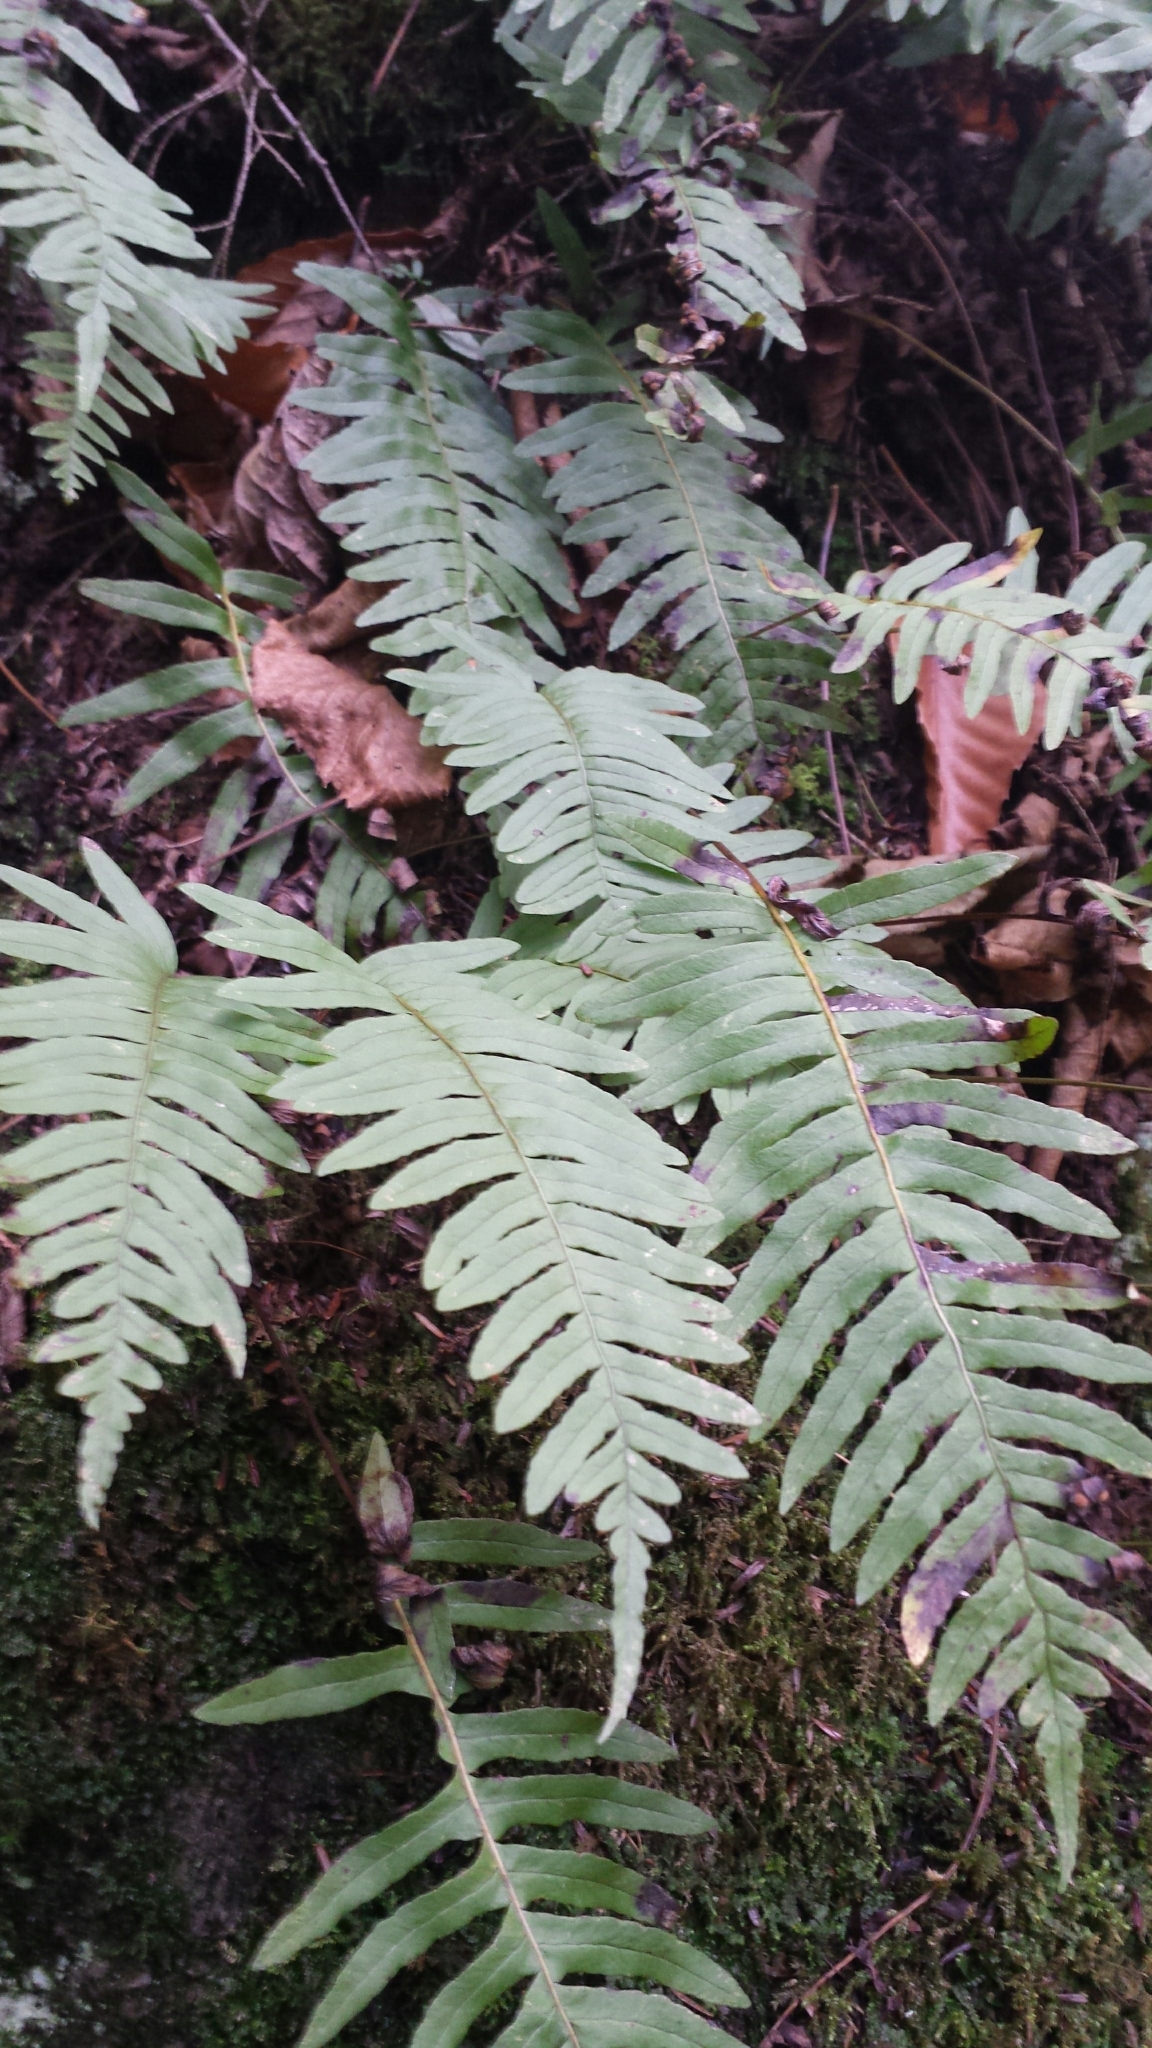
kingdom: Plantae
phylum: Tracheophyta
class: Polypodiopsida
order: Polypodiales
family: Polypodiaceae
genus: Polypodium
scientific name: Polypodium appalachianum
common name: Appalachian polypody
